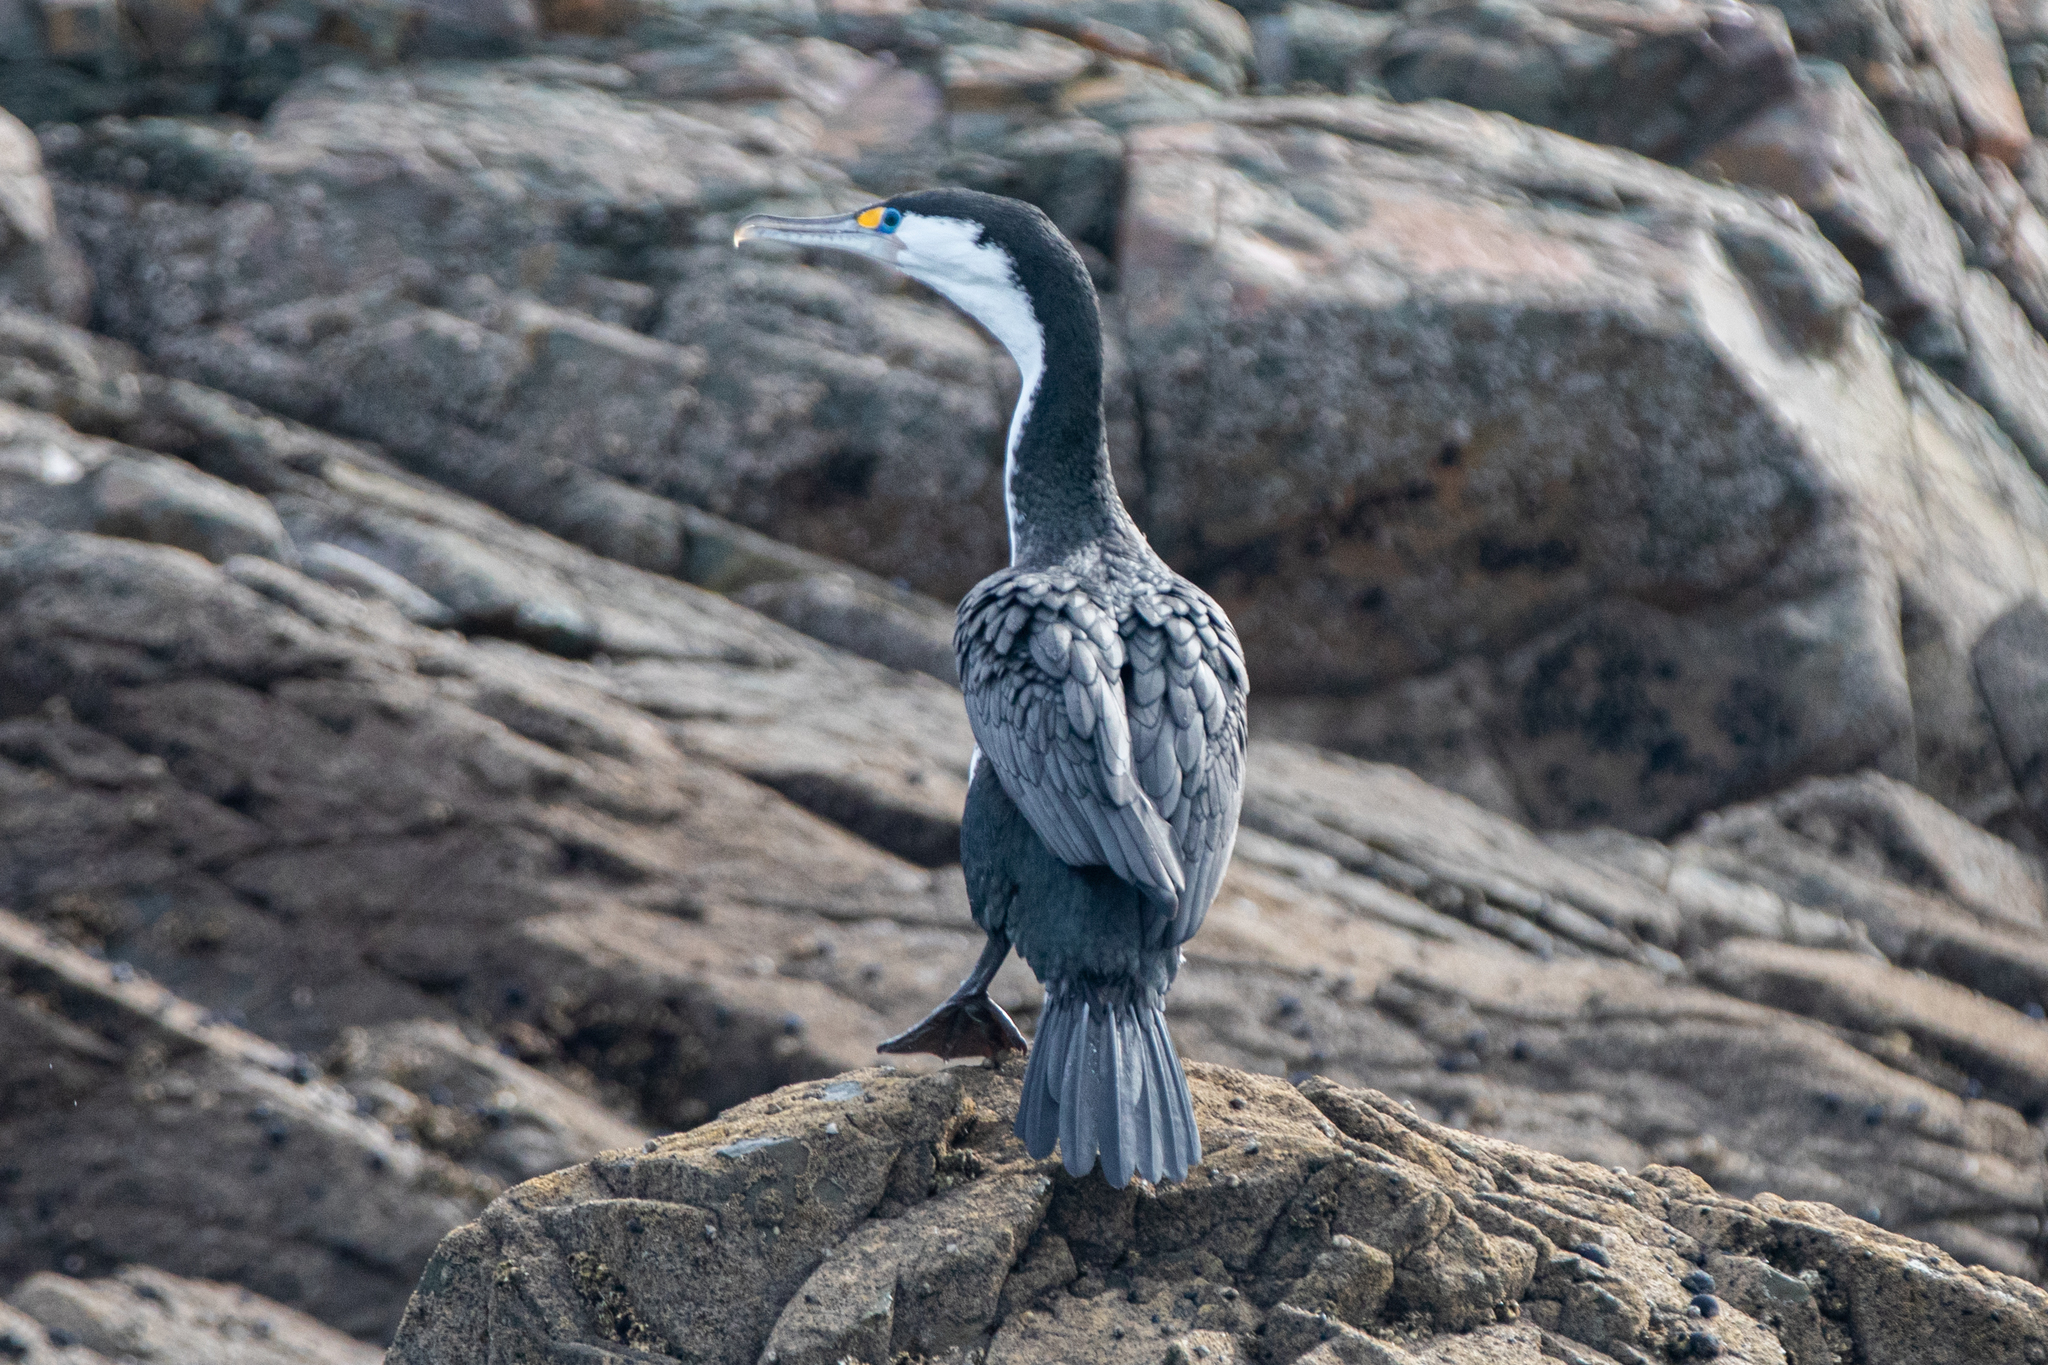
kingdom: Animalia
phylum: Chordata
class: Aves
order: Suliformes
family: Phalacrocoracidae
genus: Phalacrocorax
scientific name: Phalacrocorax varius
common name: Pied cormorant
